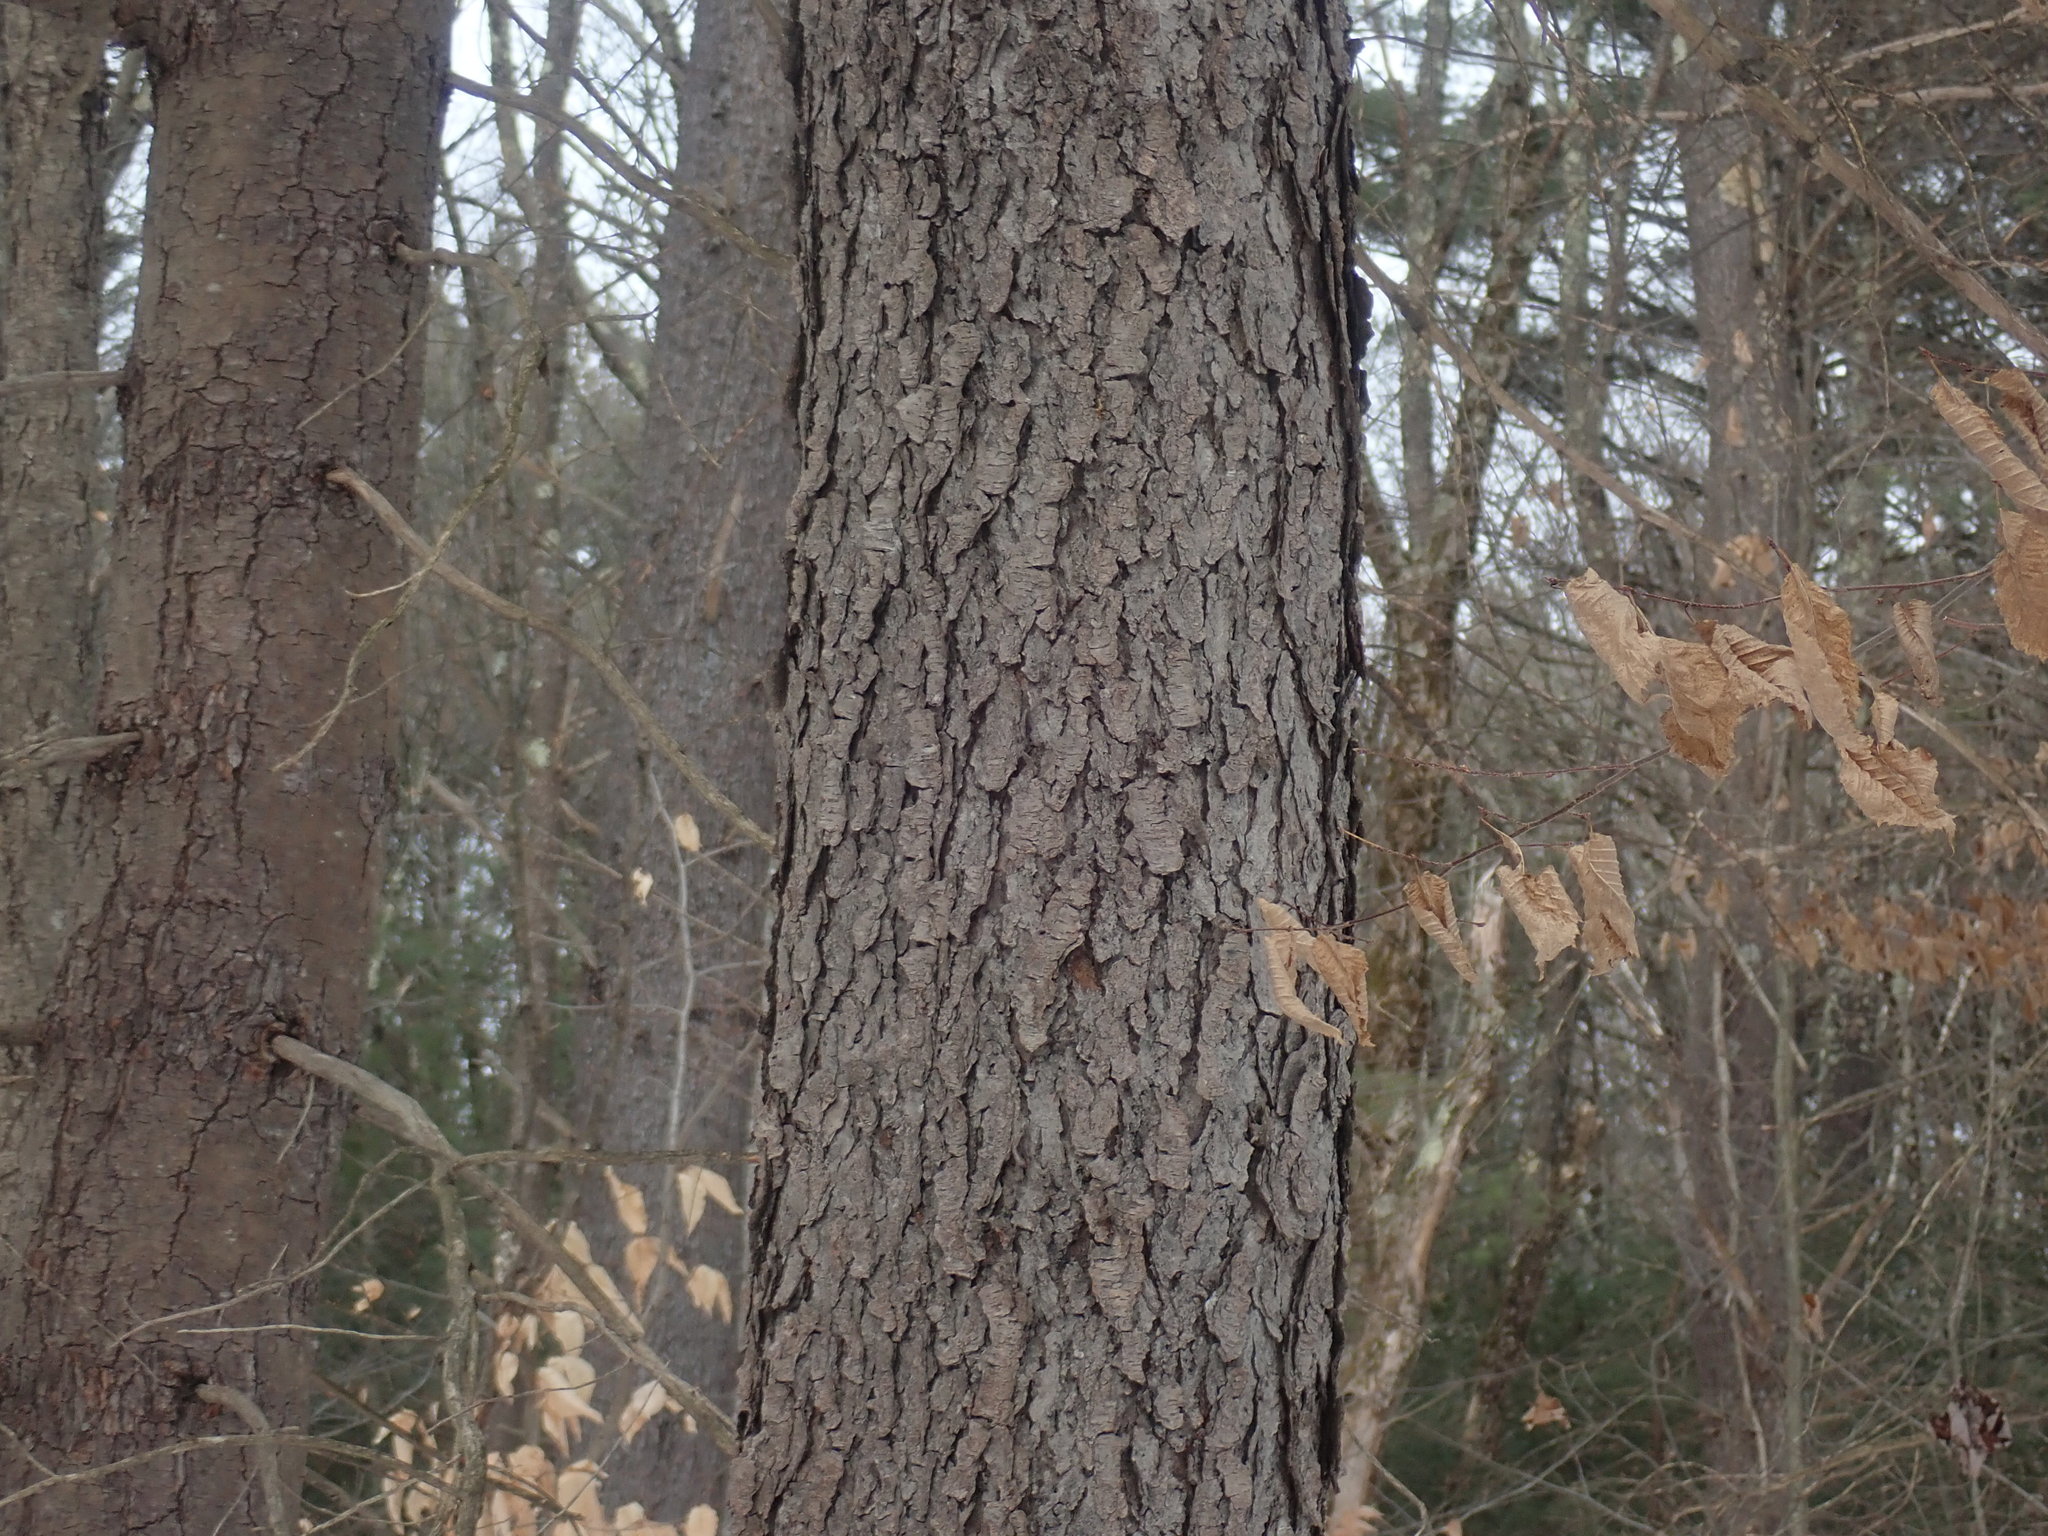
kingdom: Plantae
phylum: Tracheophyta
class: Magnoliopsida
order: Rosales
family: Rosaceae
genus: Prunus
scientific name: Prunus serotina
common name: Black cherry
